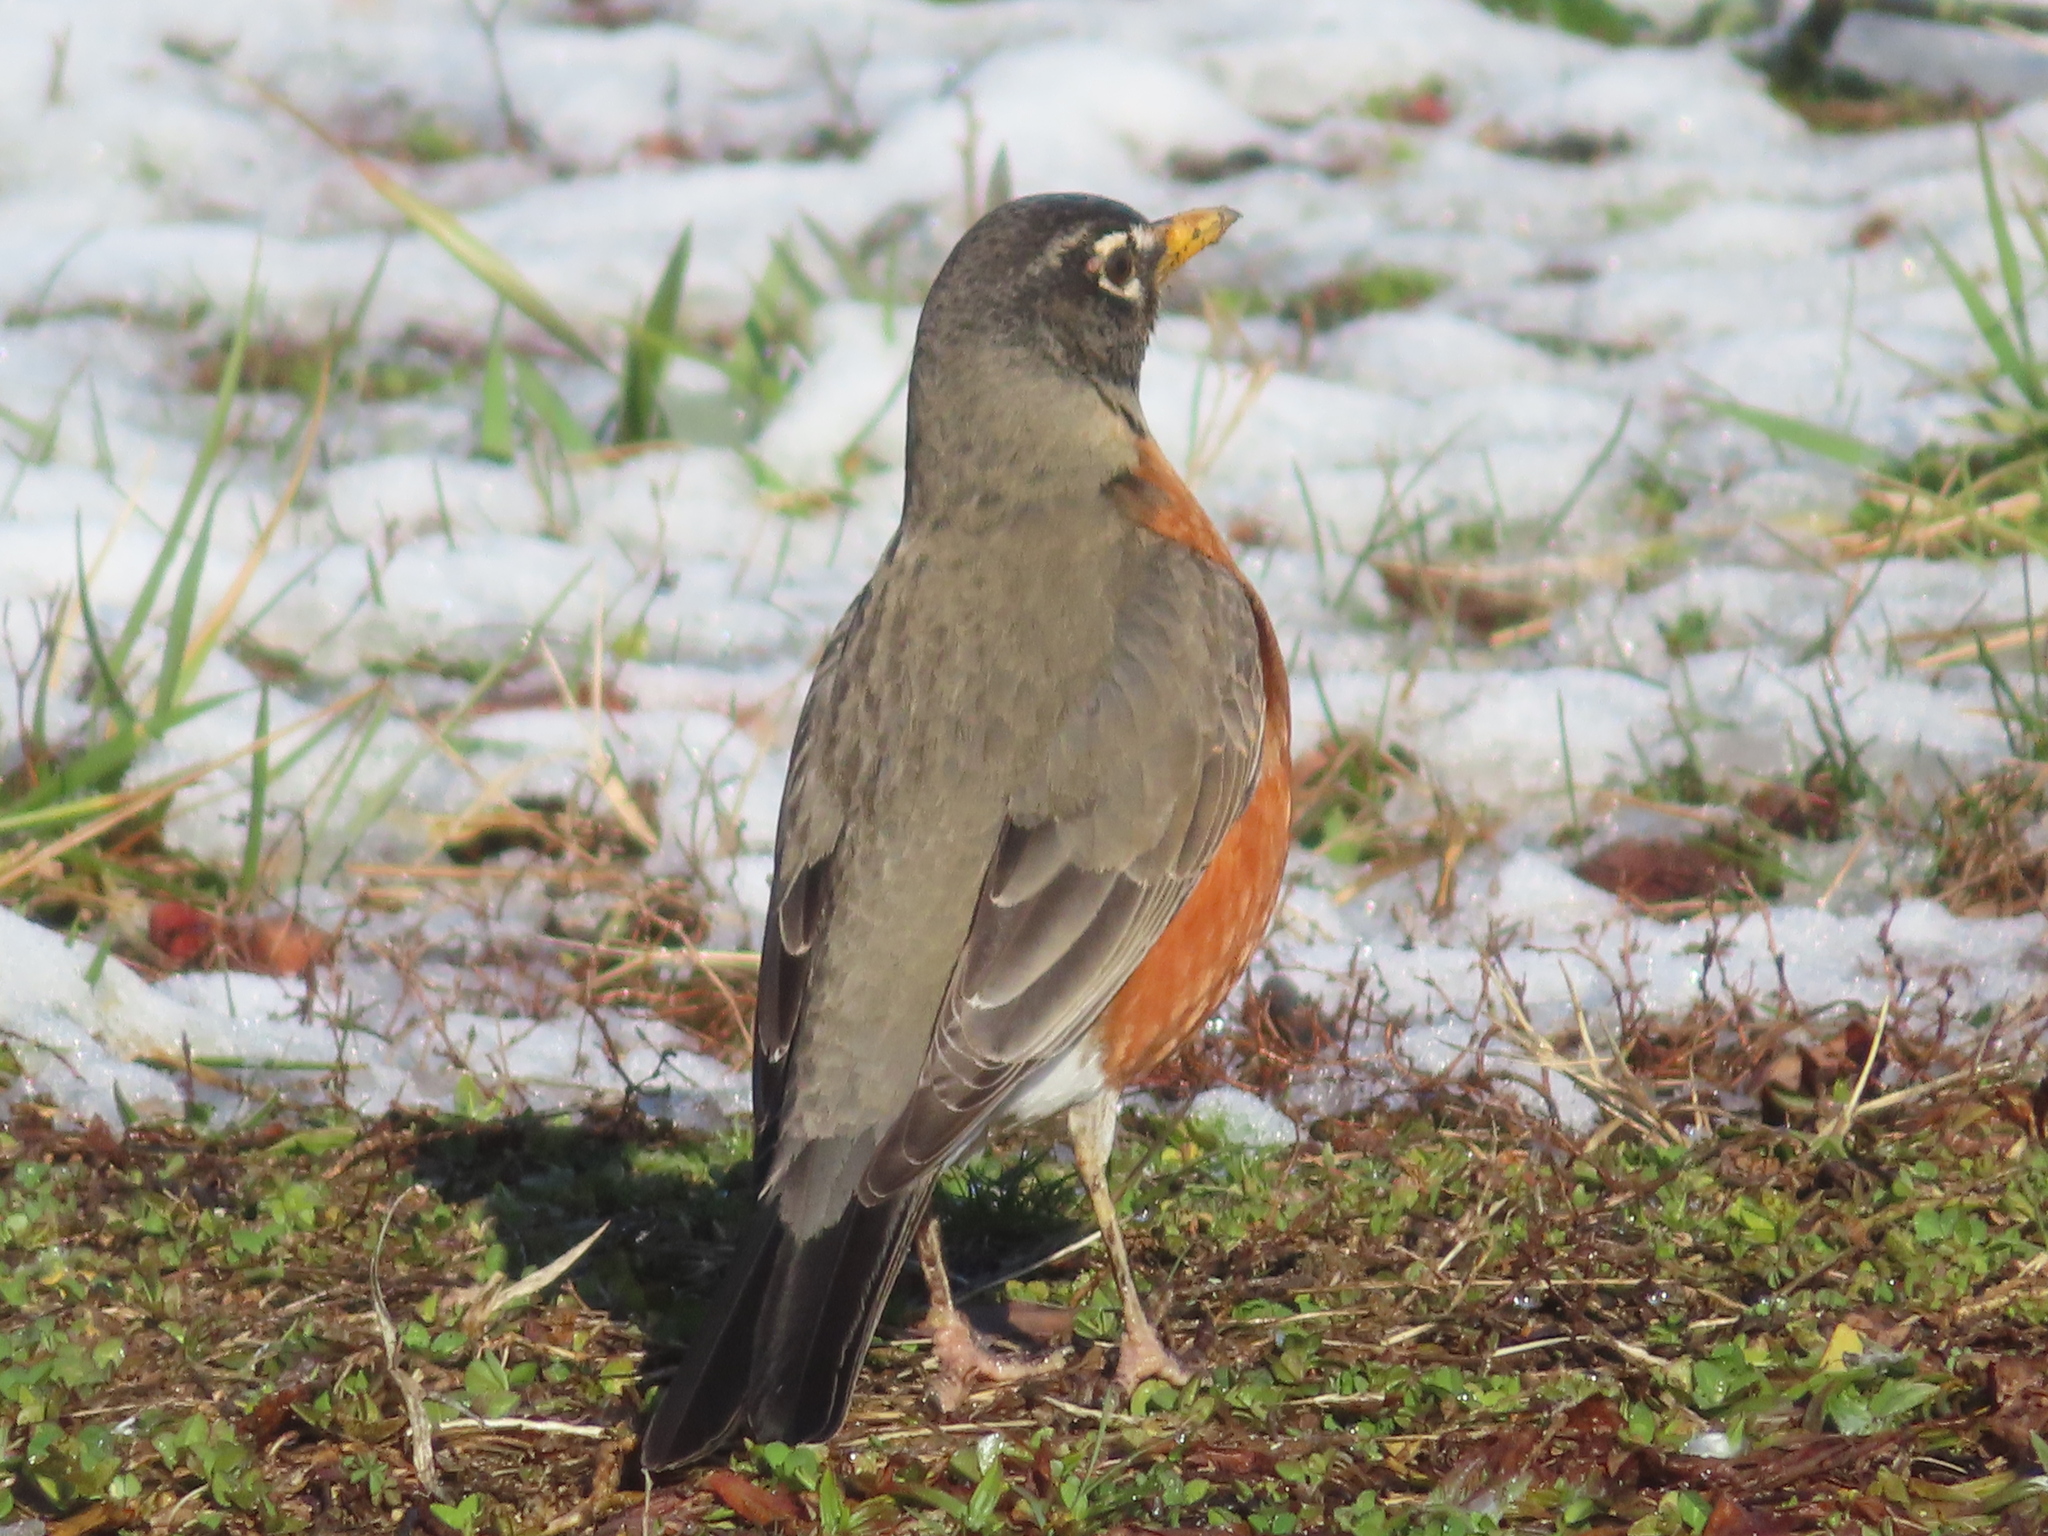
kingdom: Animalia
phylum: Chordata
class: Aves
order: Passeriformes
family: Turdidae
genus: Turdus
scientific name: Turdus migratorius
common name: American robin
